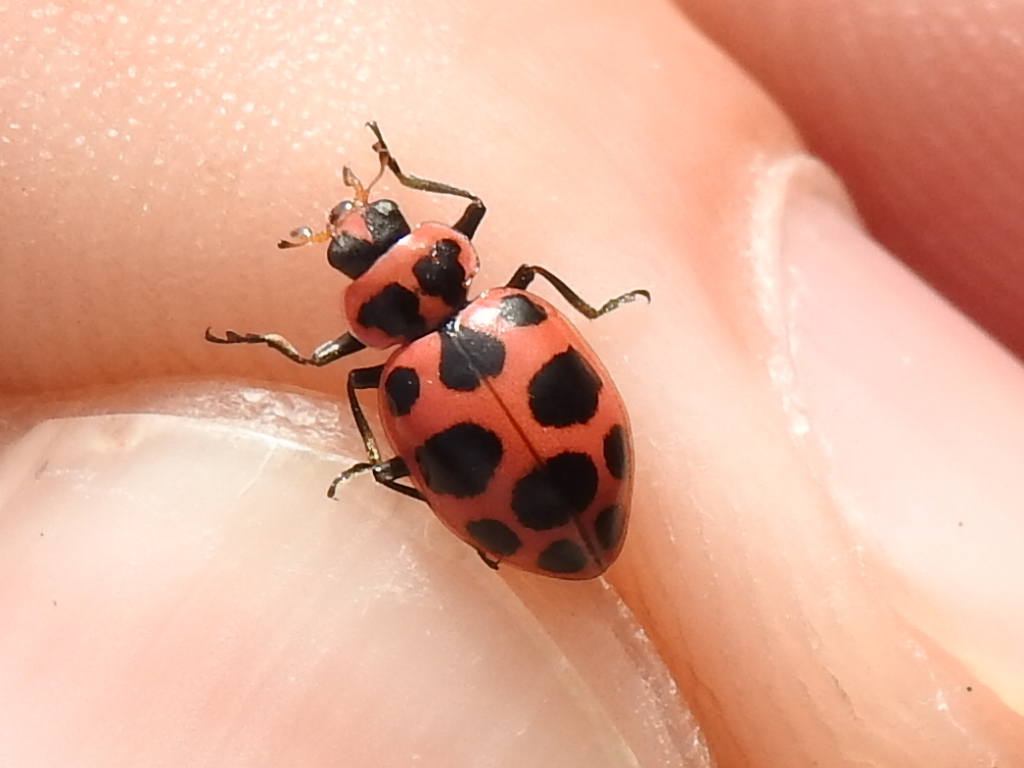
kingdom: Animalia
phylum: Arthropoda
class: Insecta
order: Coleoptera
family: Coccinellidae
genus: Coleomegilla
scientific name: Coleomegilla maculata
